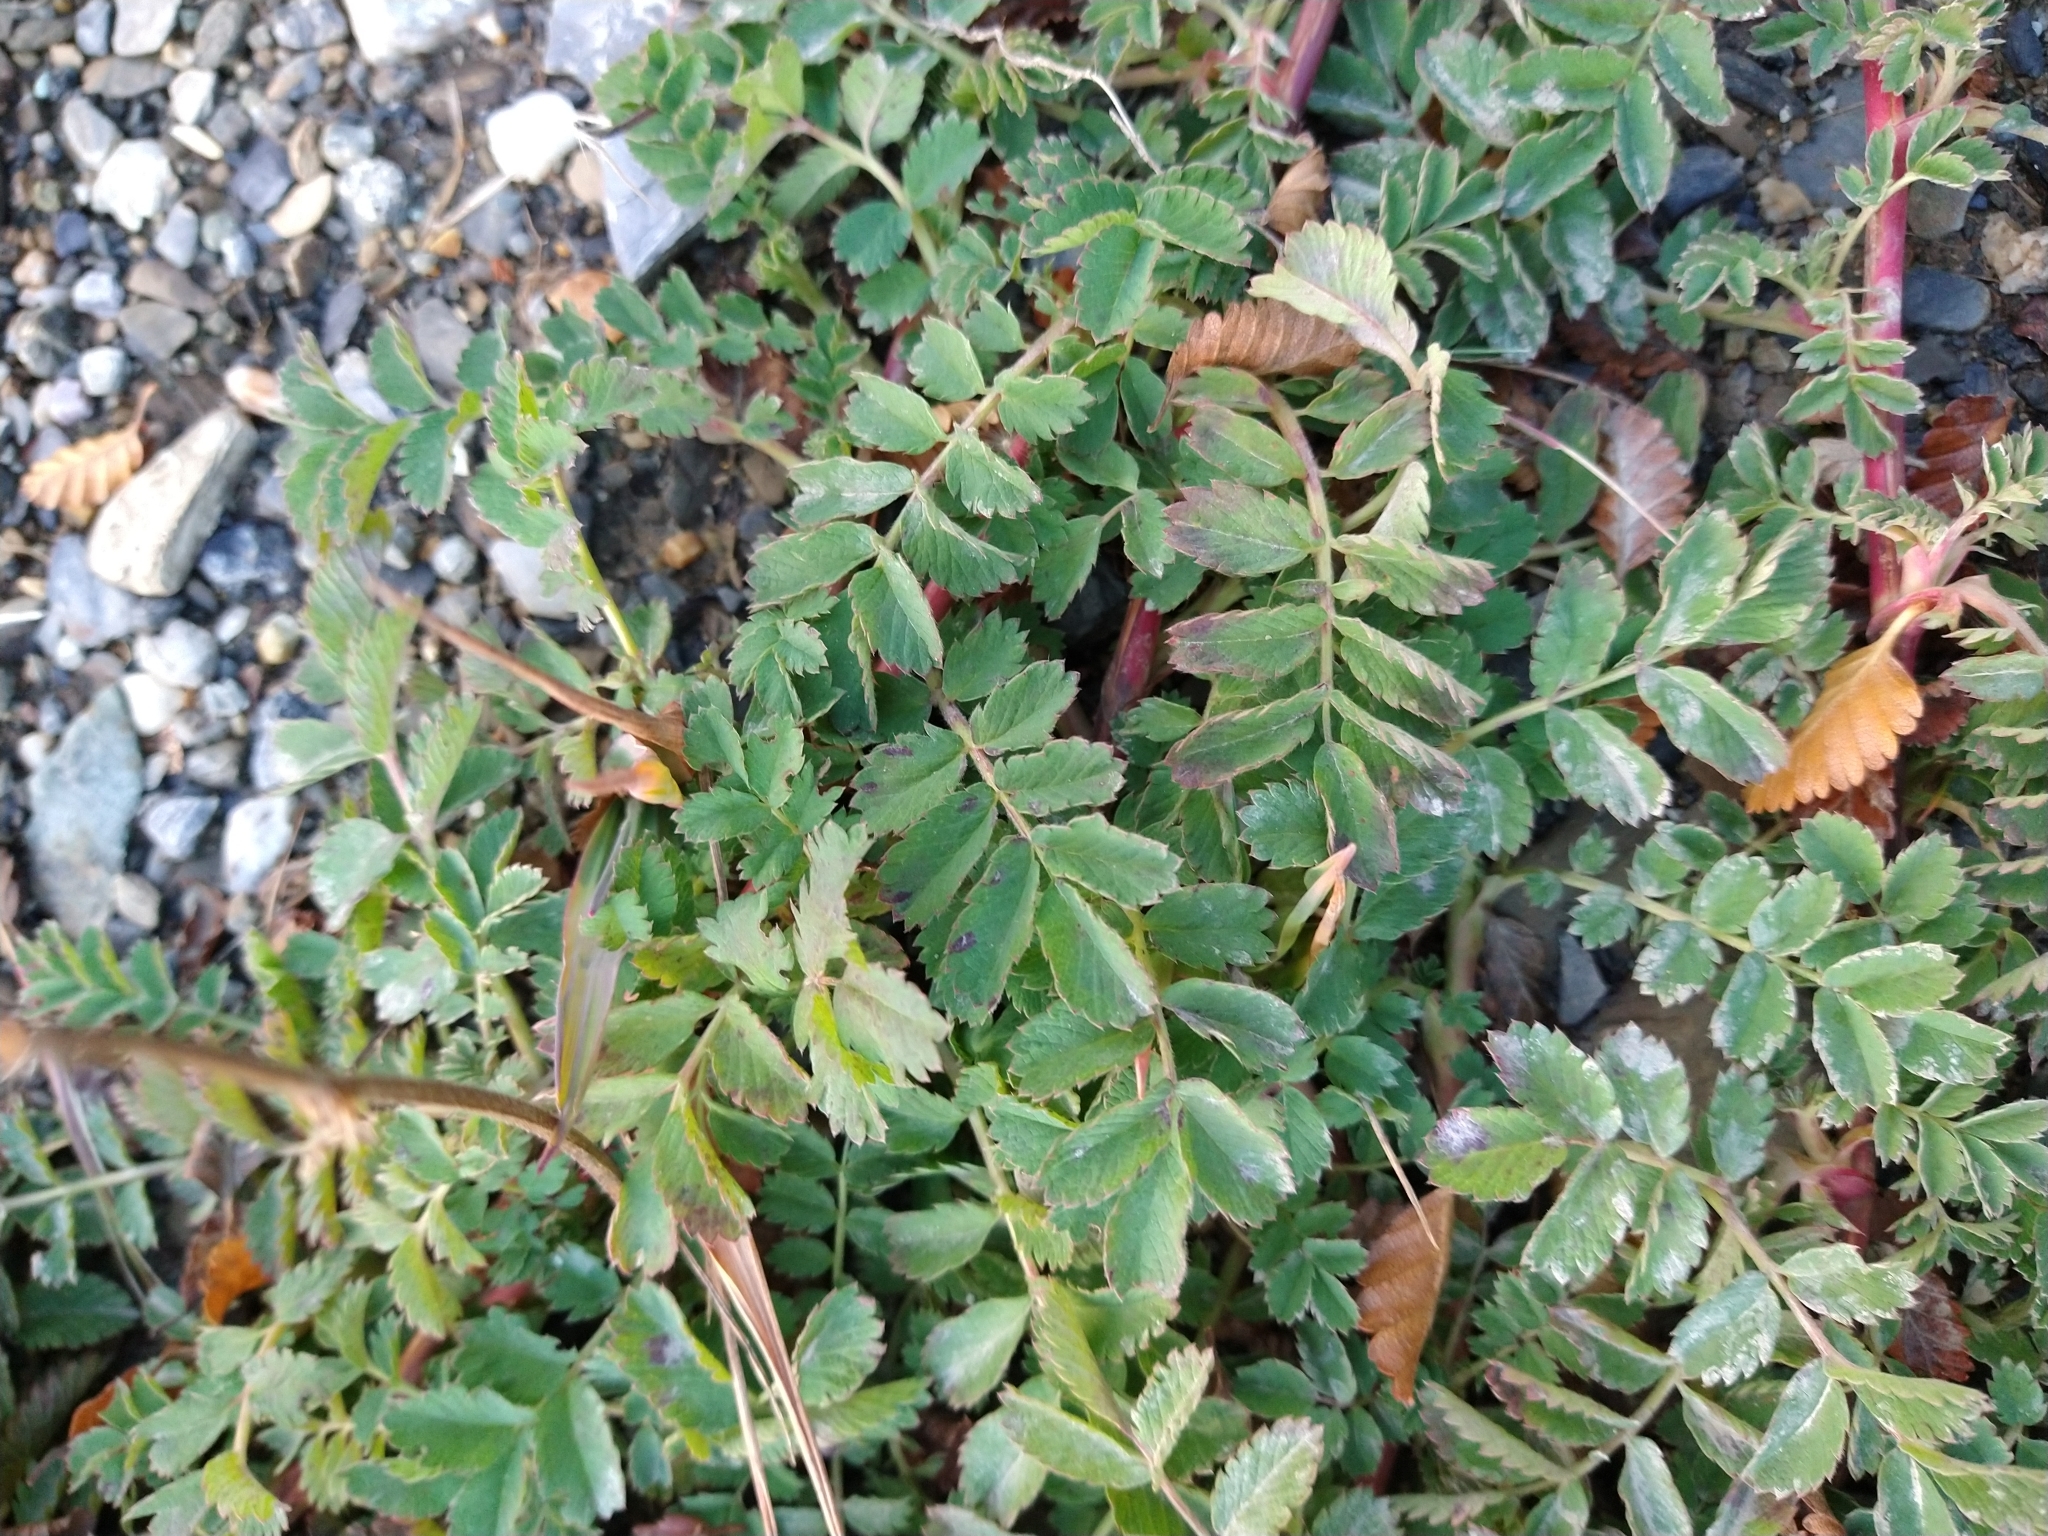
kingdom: Plantae
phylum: Tracheophyta
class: Magnoliopsida
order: Rosales
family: Rosaceae
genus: Acaena
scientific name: Acaena magellanica
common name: New zealand burr
